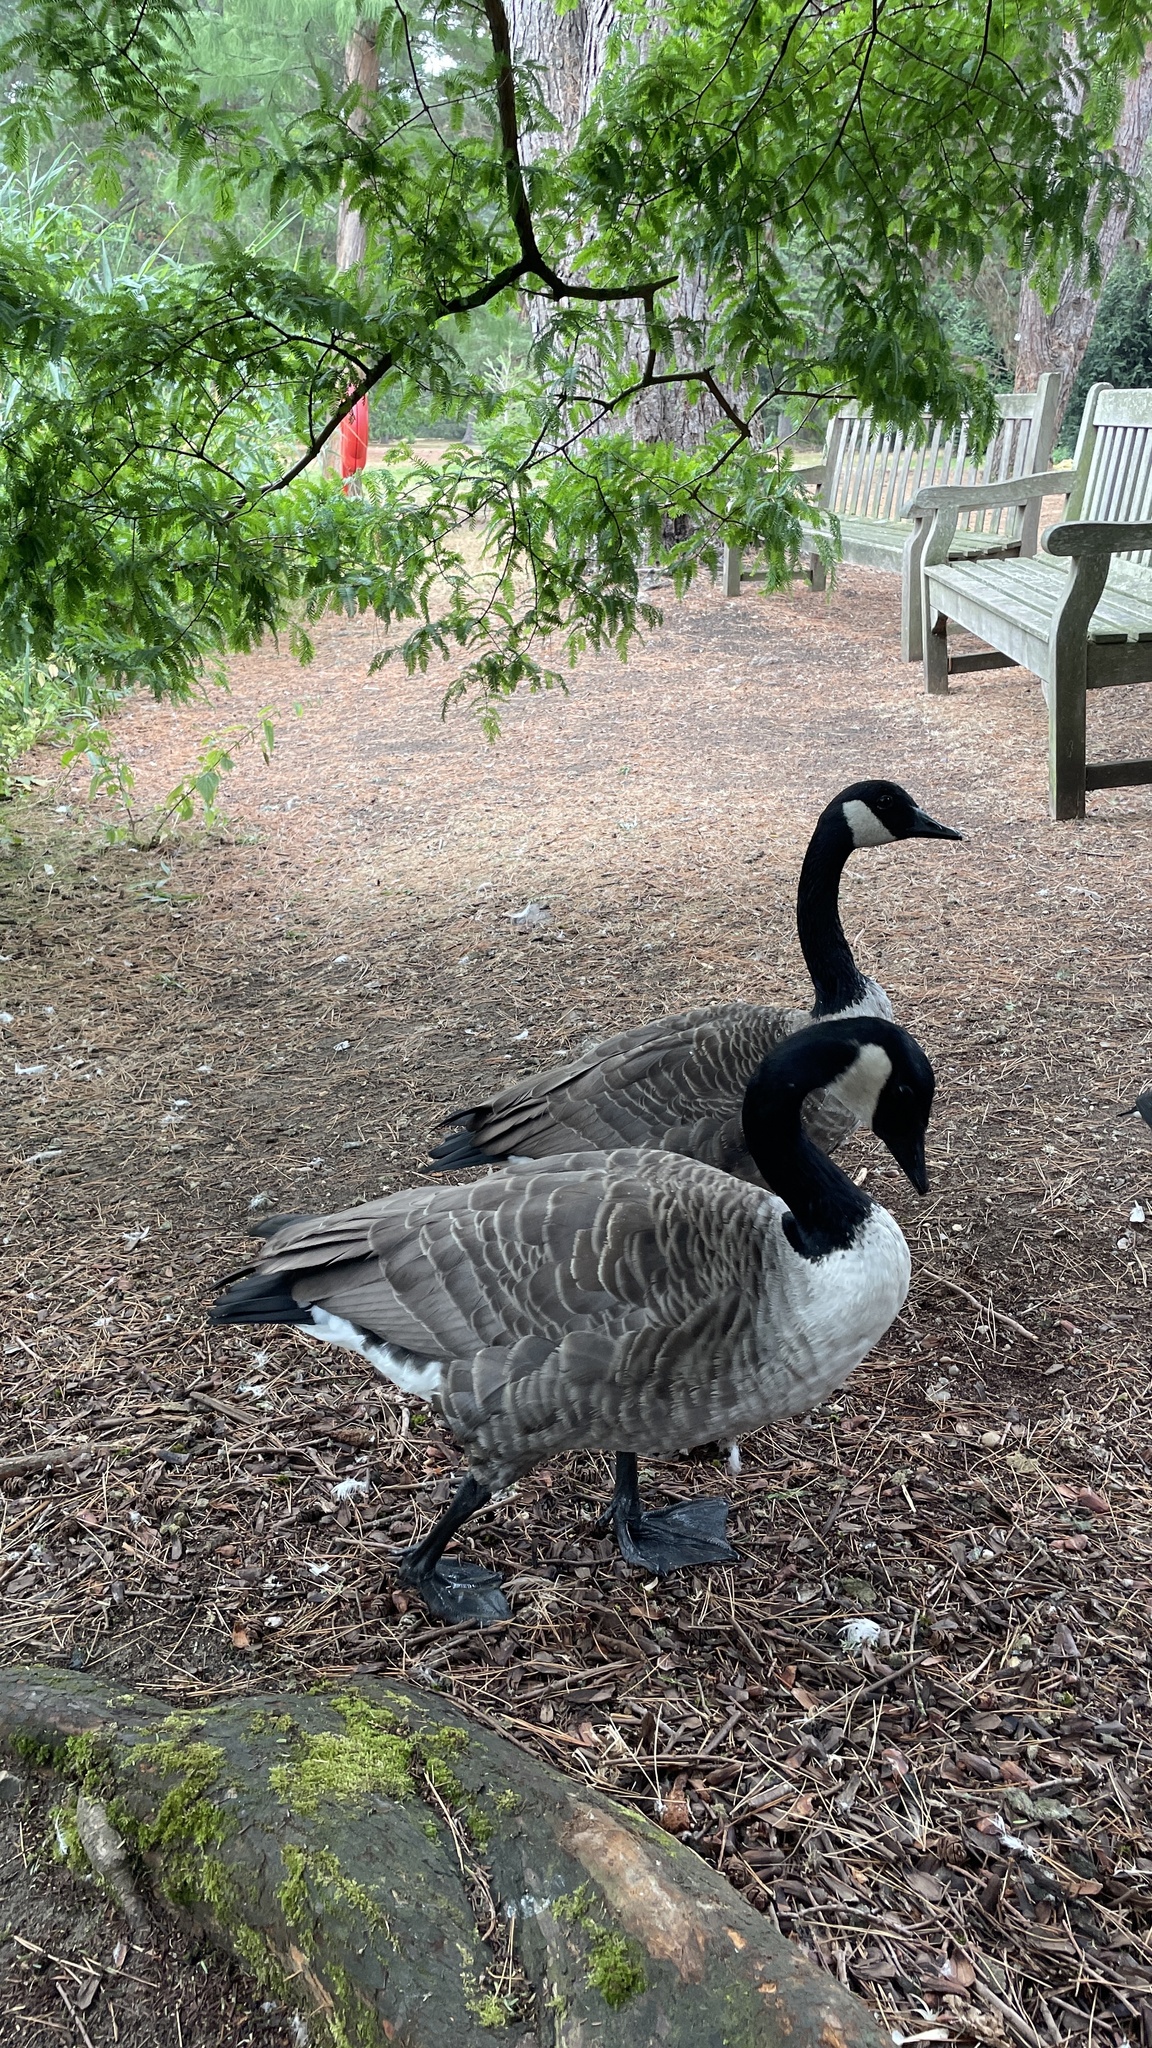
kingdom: Animalia
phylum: Chordata
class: Aves
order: Anseriformes
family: Anatidae
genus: Branta
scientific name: Branta canadensis
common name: Canada goose
